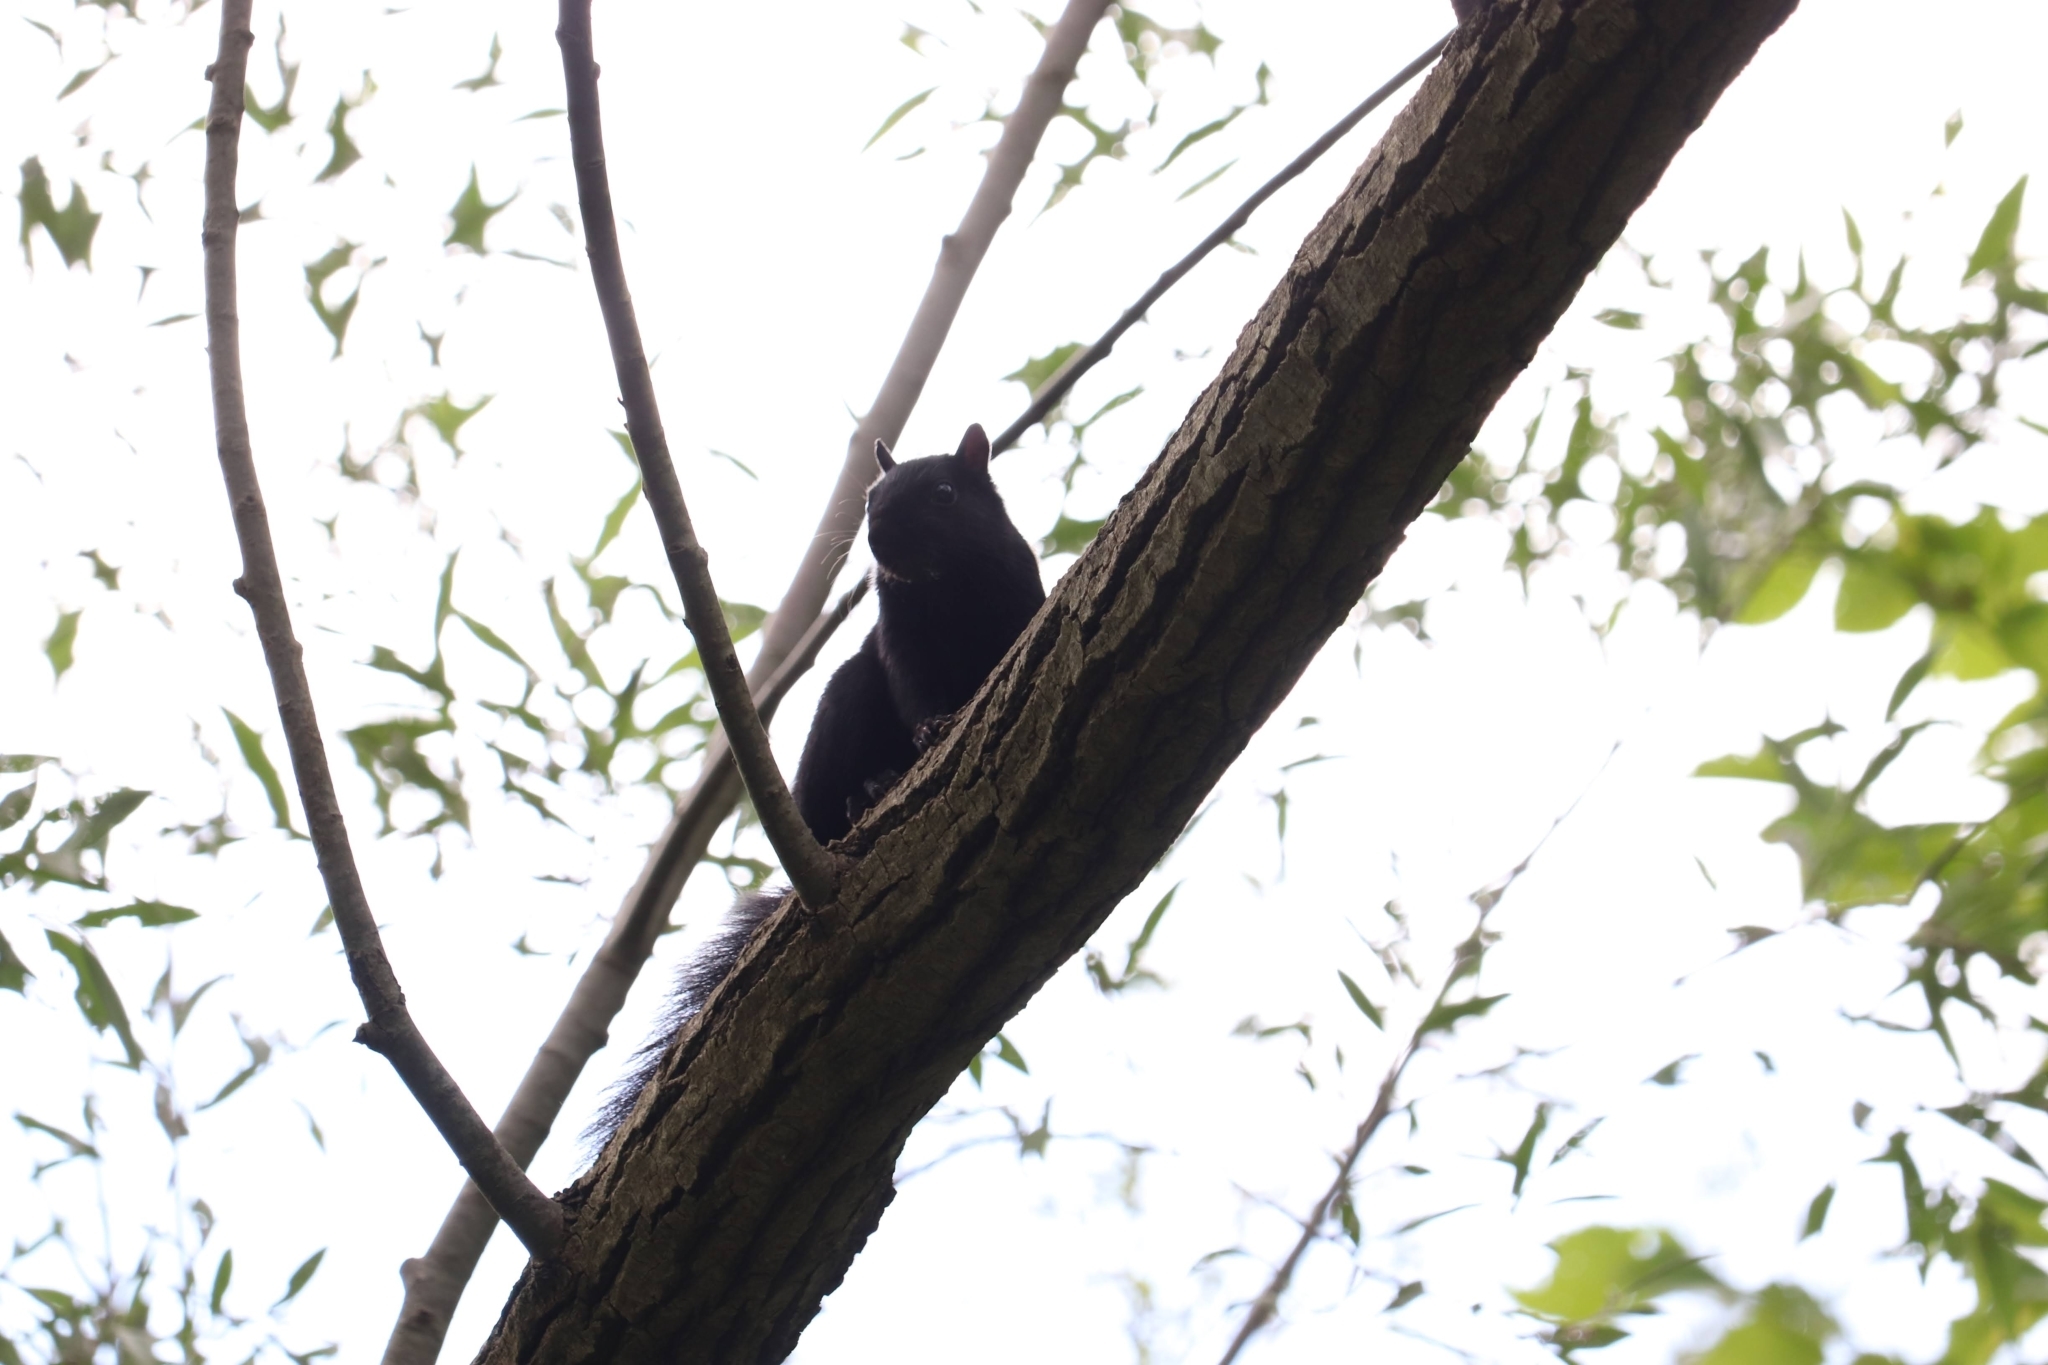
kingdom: Animalia
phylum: Chordata
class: Mammalia
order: Rodentia
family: Sciuridae
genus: Sciurus
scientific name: Sciurus carolinensis
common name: Eastern gray squirrel
